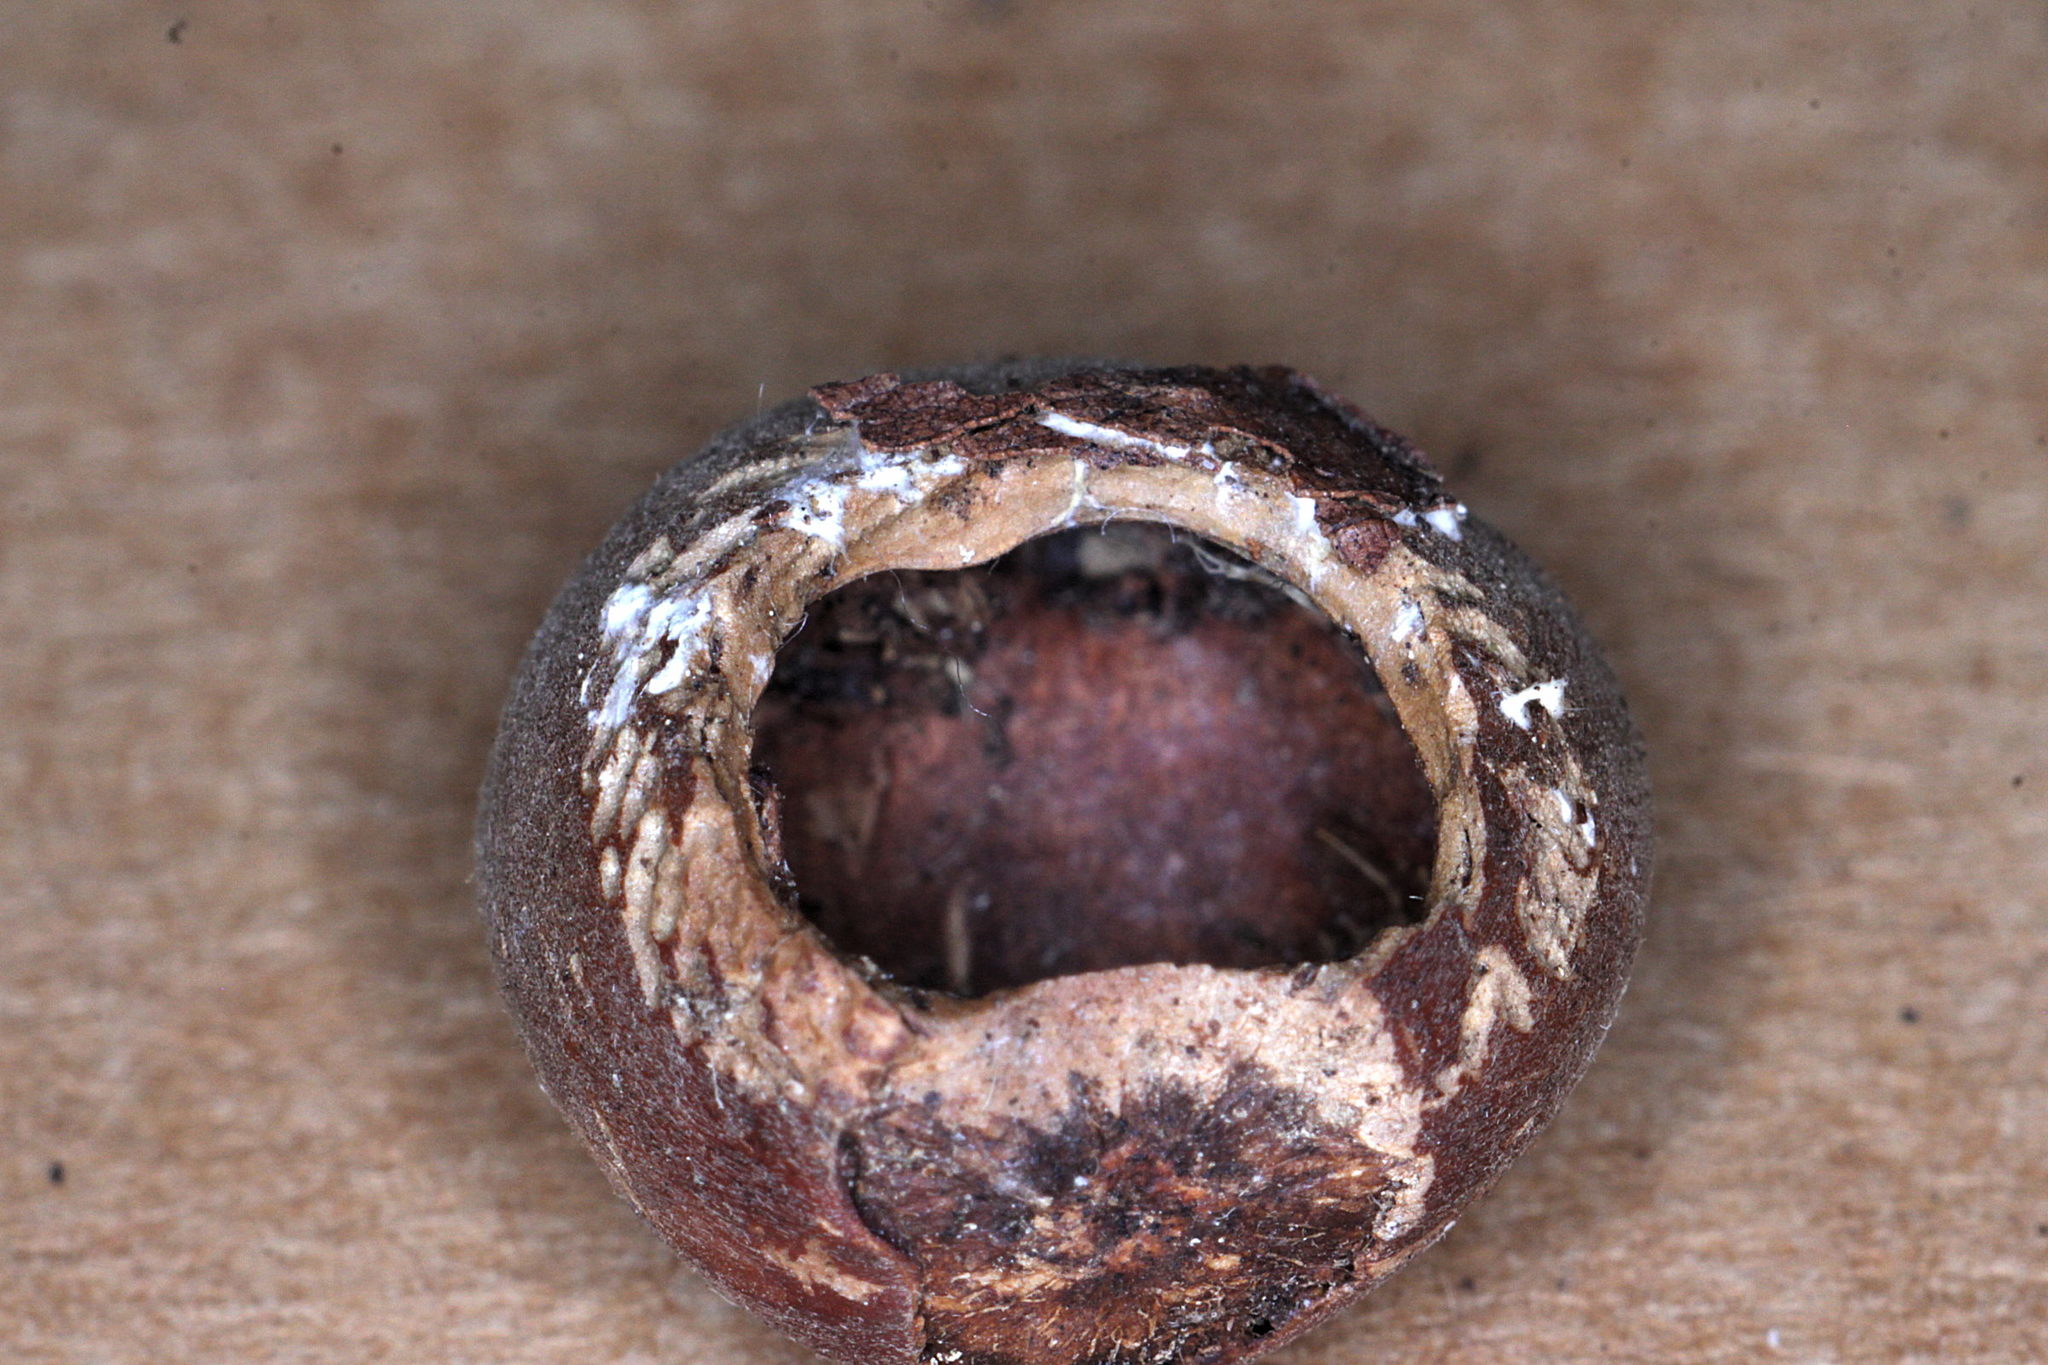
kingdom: Animalia
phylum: Chordata
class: Mammalia
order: Rodentia
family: Gliridae
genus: Muscardinus
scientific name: Muscardinus avellanarius
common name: Hazel dormouse
